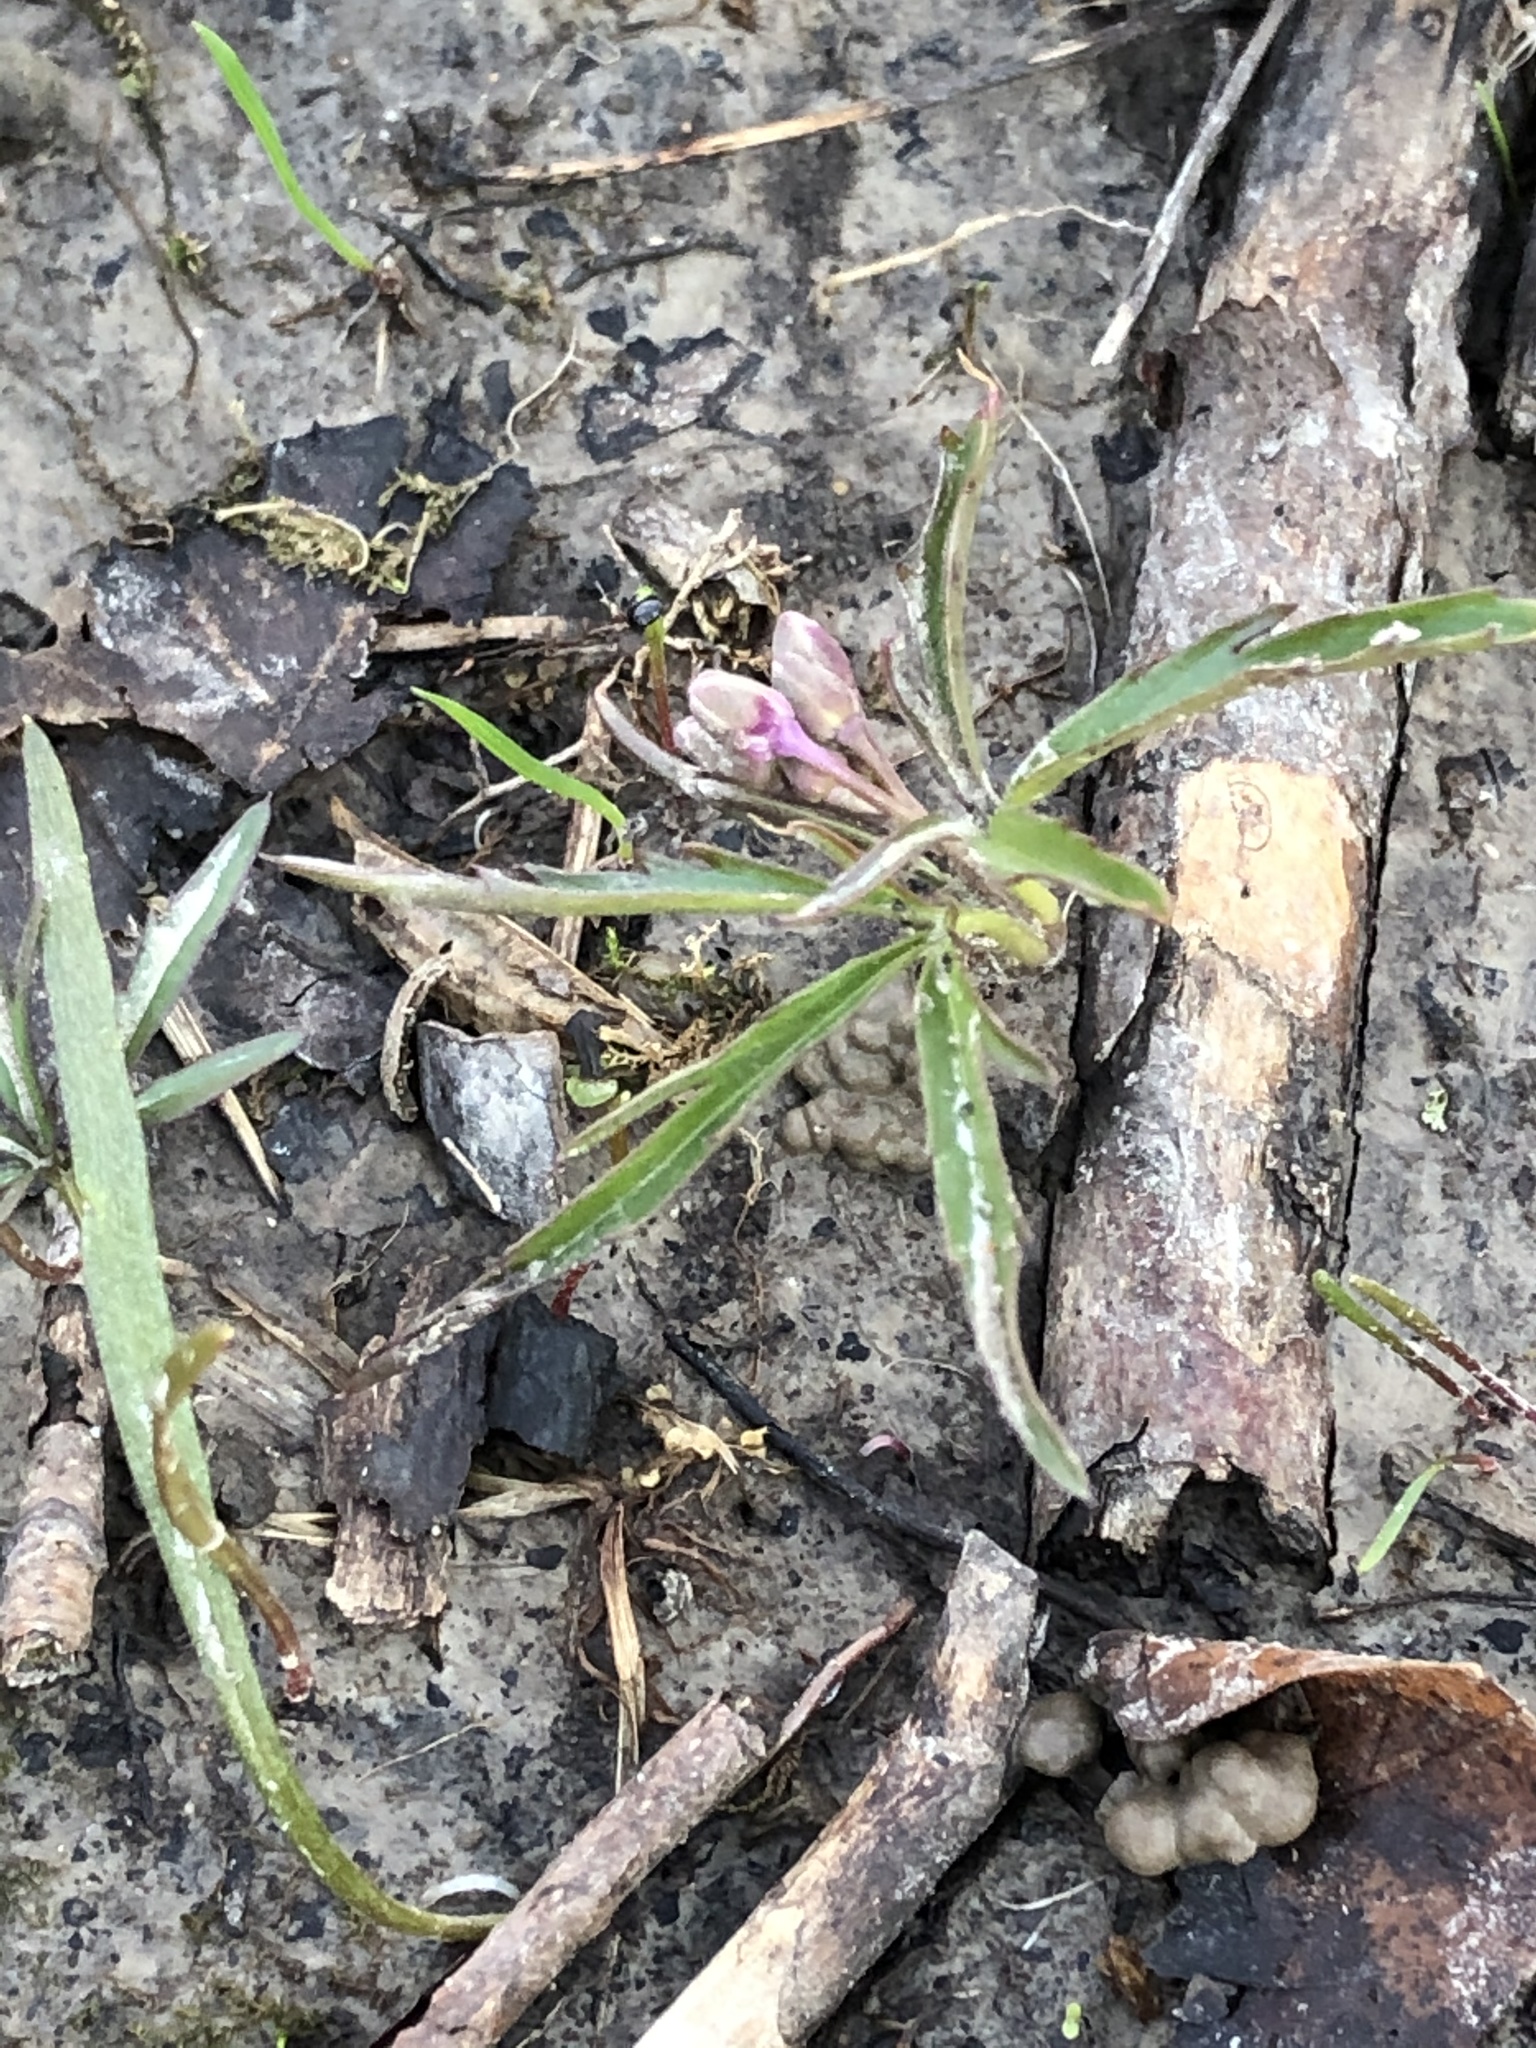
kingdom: Plantae
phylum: Tracheophyta
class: Magnoliopsida
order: Brassicales
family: Brassicaceae
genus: Cardamine
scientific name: Cardamine concatenata
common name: Cut-leaf toothcup
